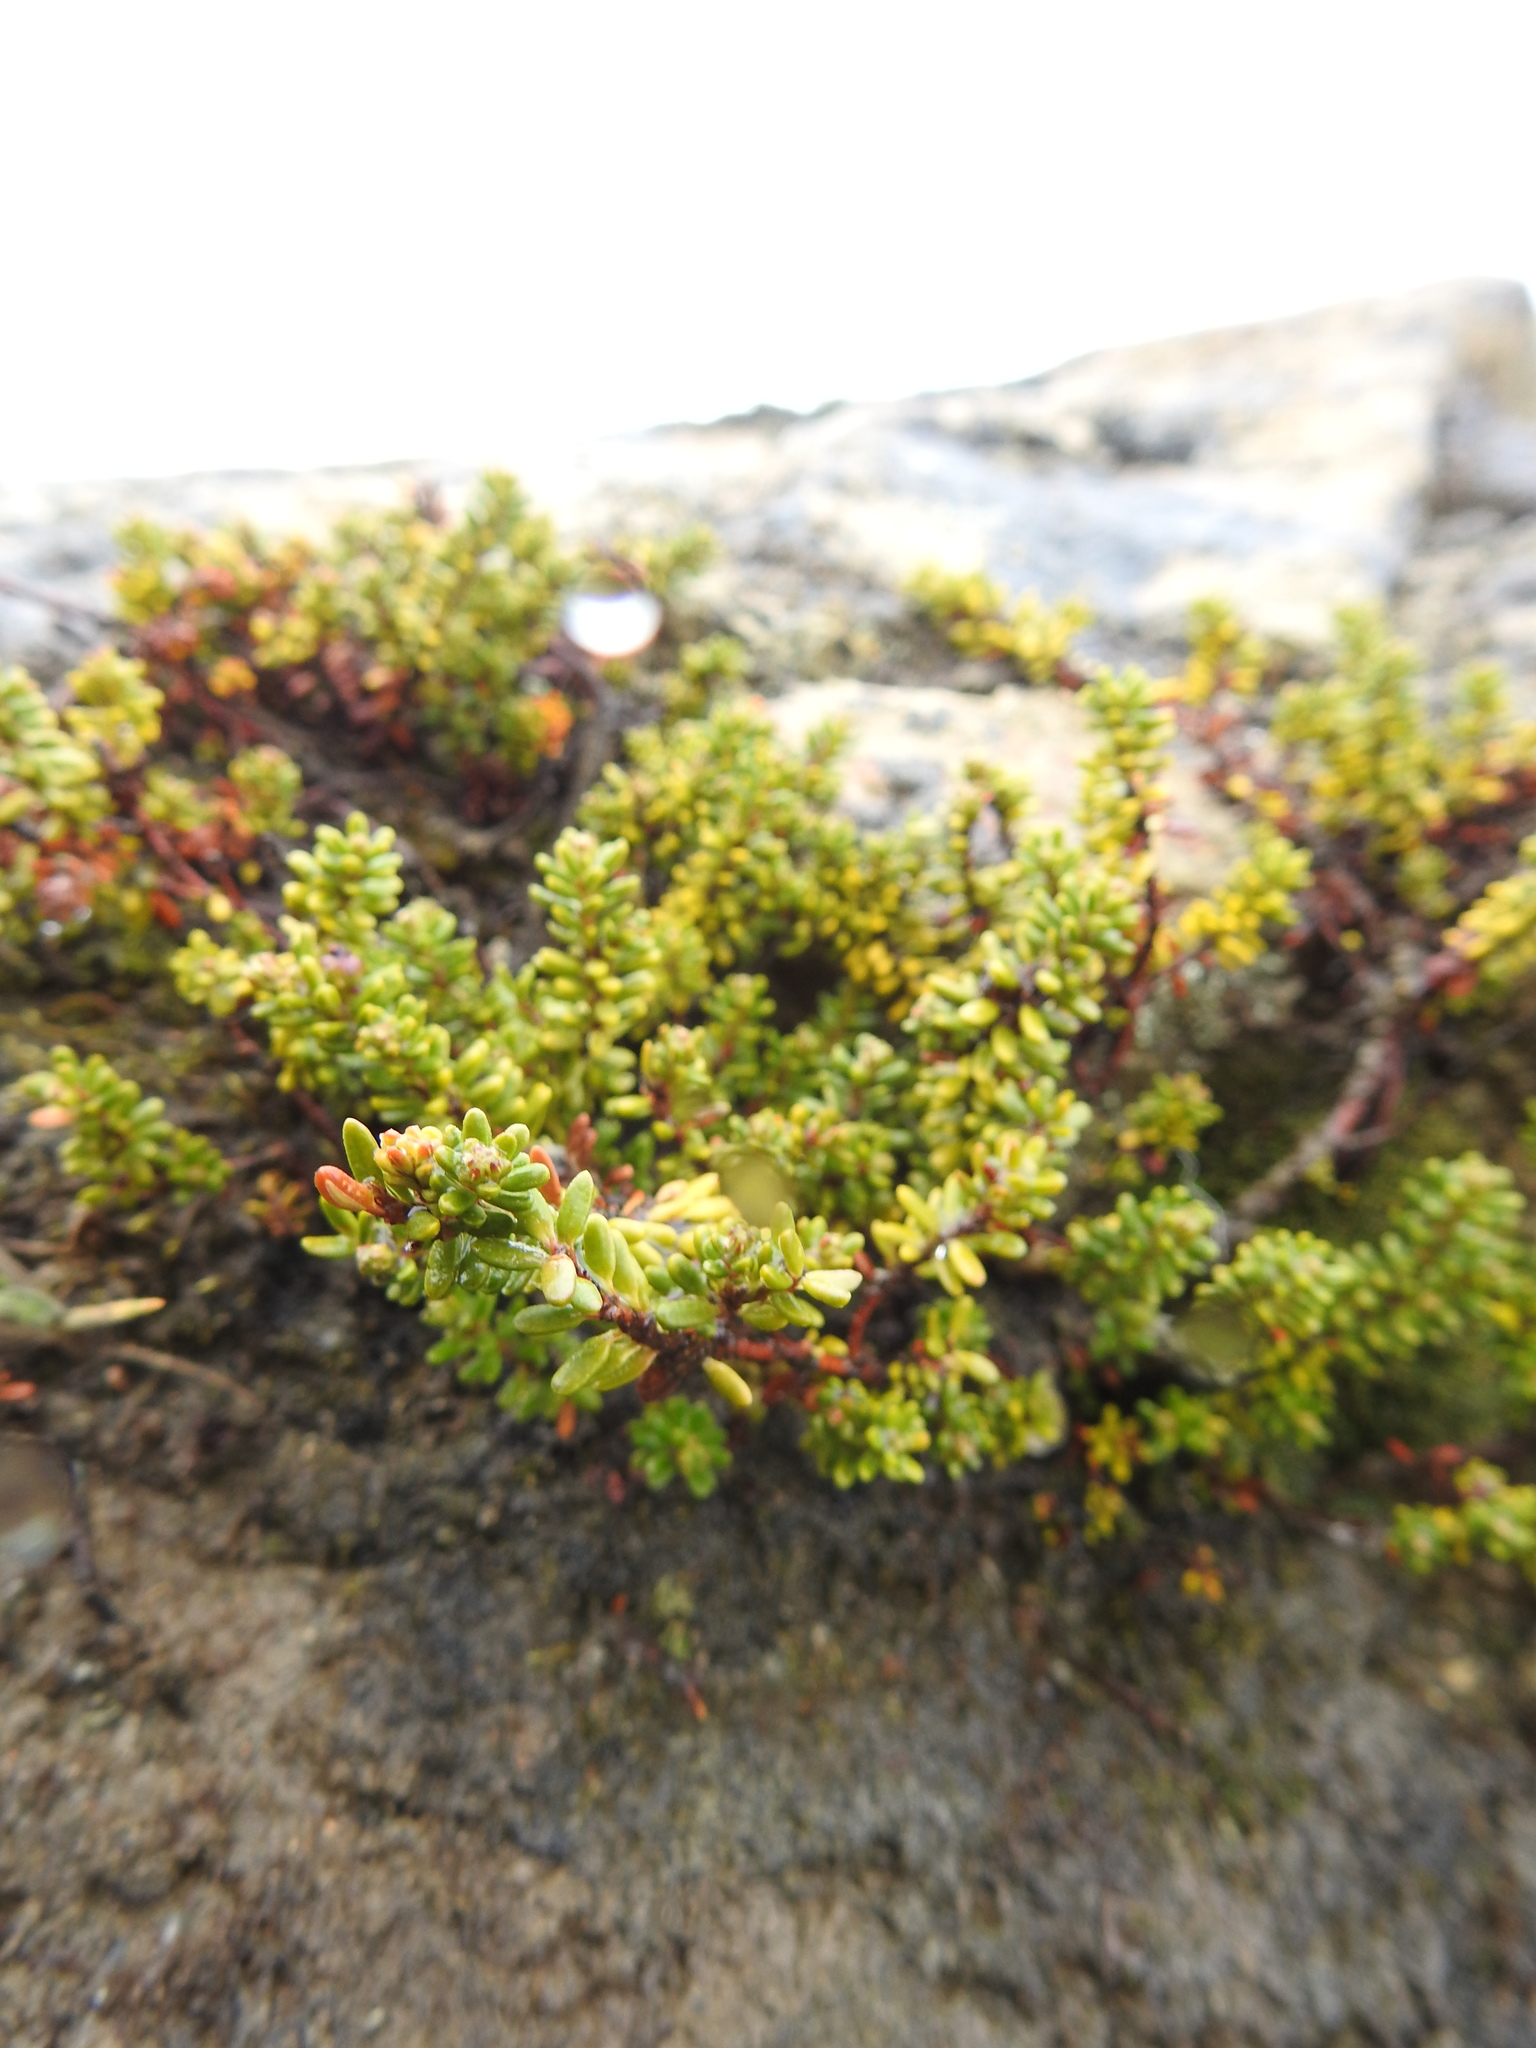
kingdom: Plantae
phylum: Tracheophyta
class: Magnoliopsida
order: Ericales
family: Ericaceae
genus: Empetrum
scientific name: Empetrum rubrum
